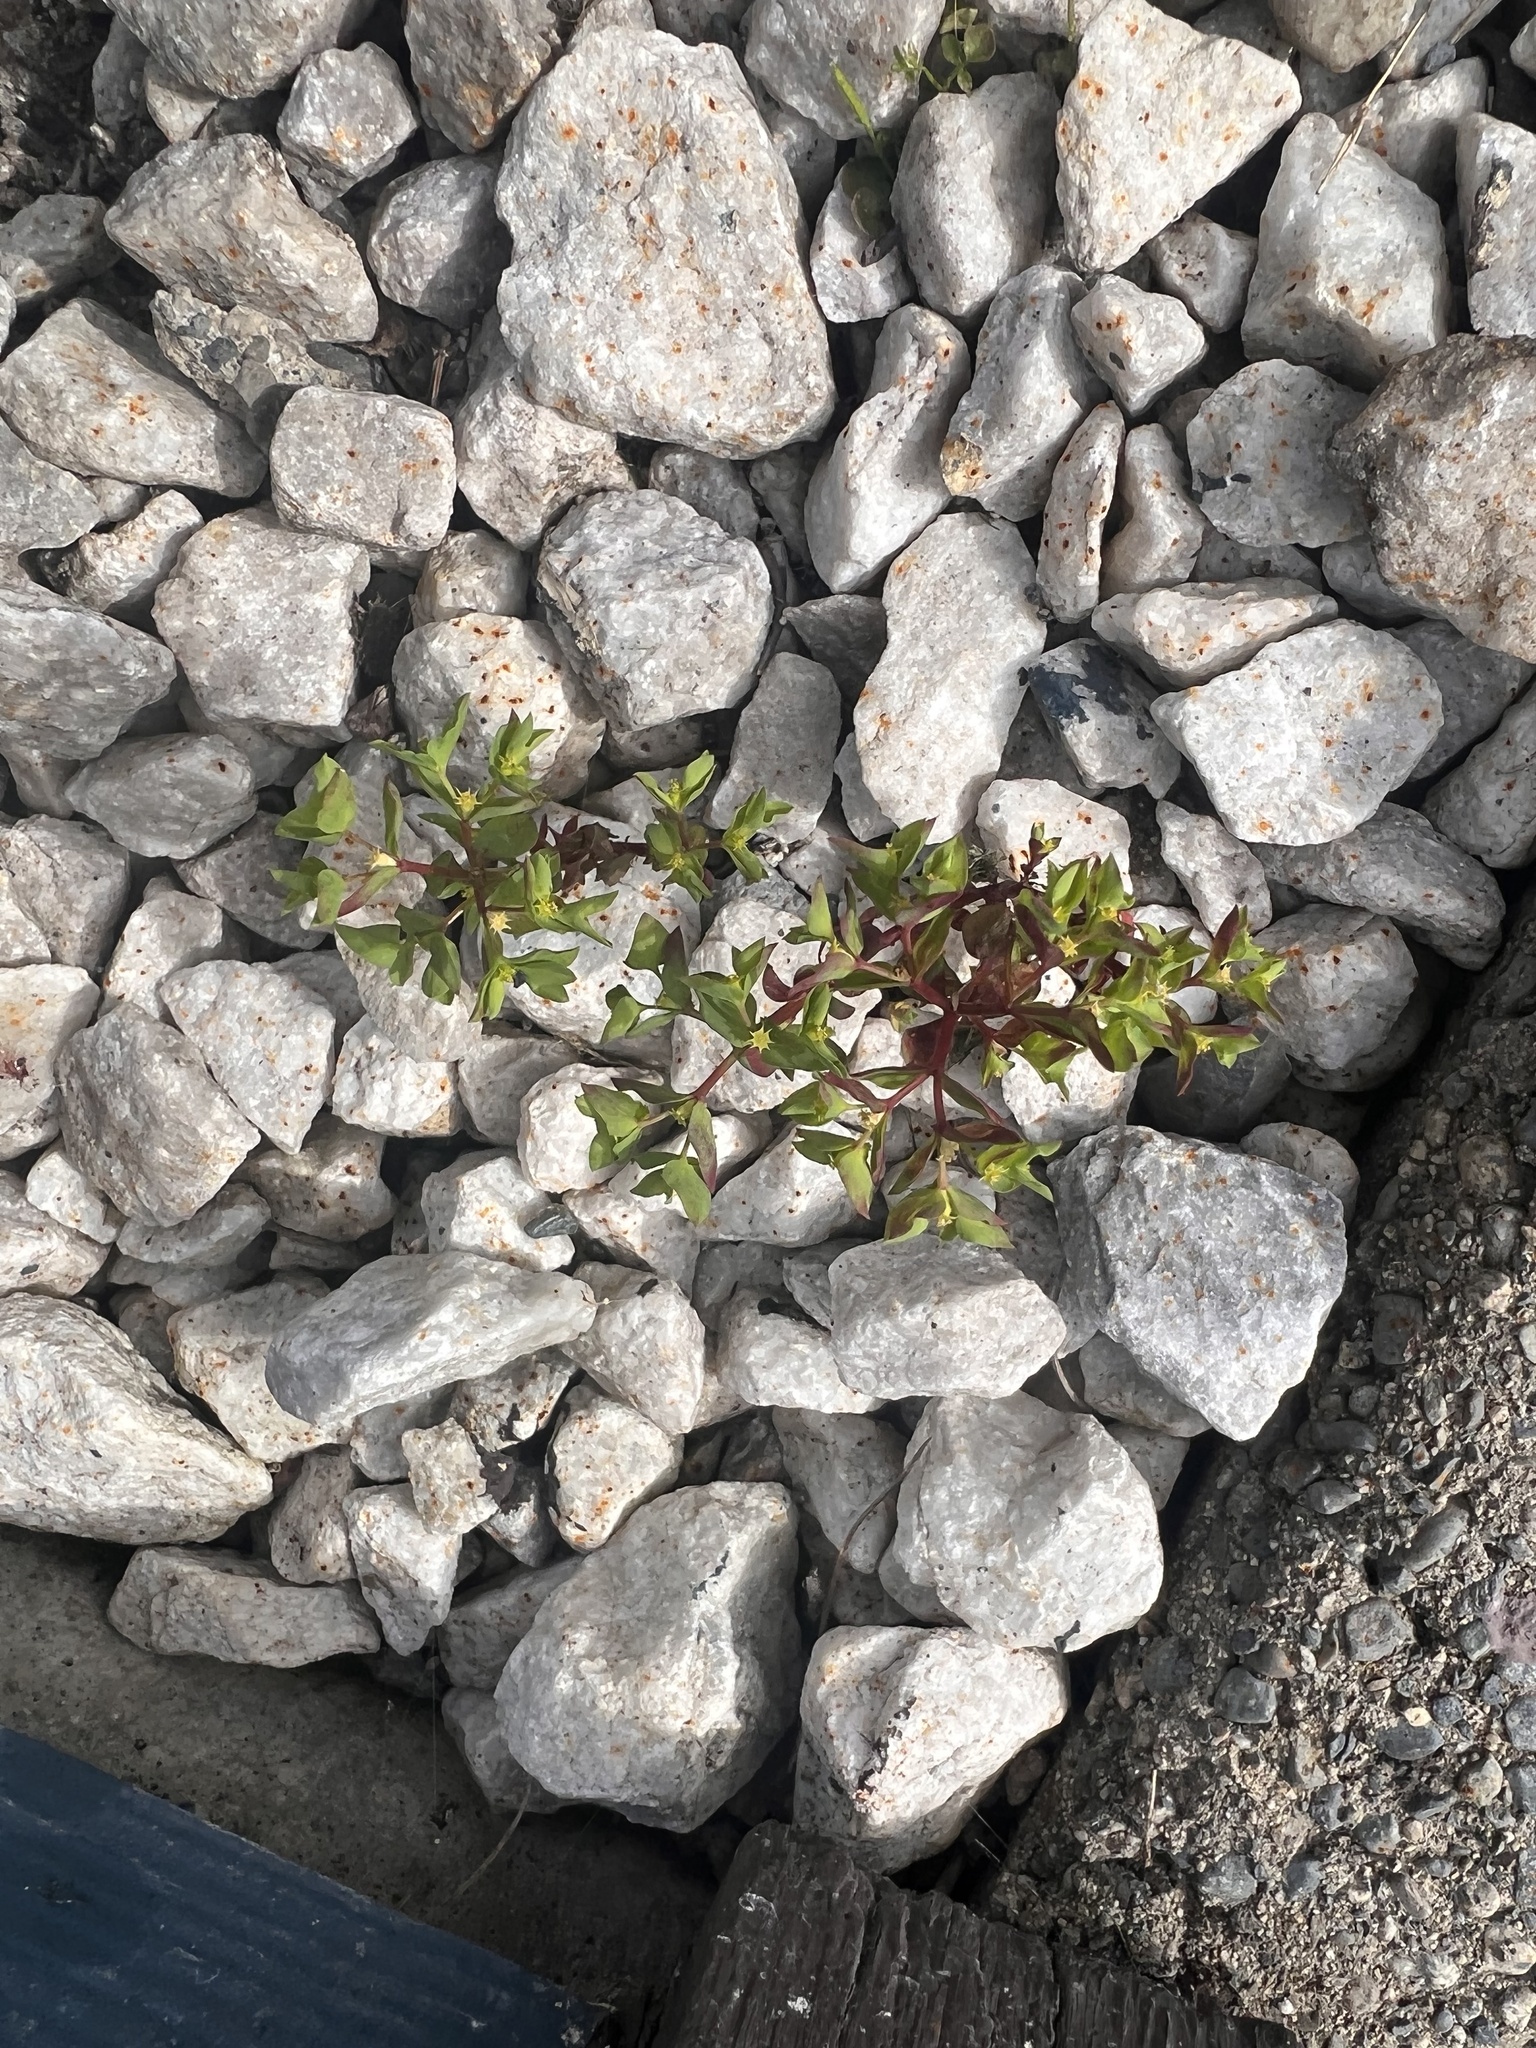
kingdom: Plantae
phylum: Tracheophyta
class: Magnoliopsida
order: Malpighiales
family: Euphorbiaceae
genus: Euphorbia
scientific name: Euphorbia peplus
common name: Petty spurge
